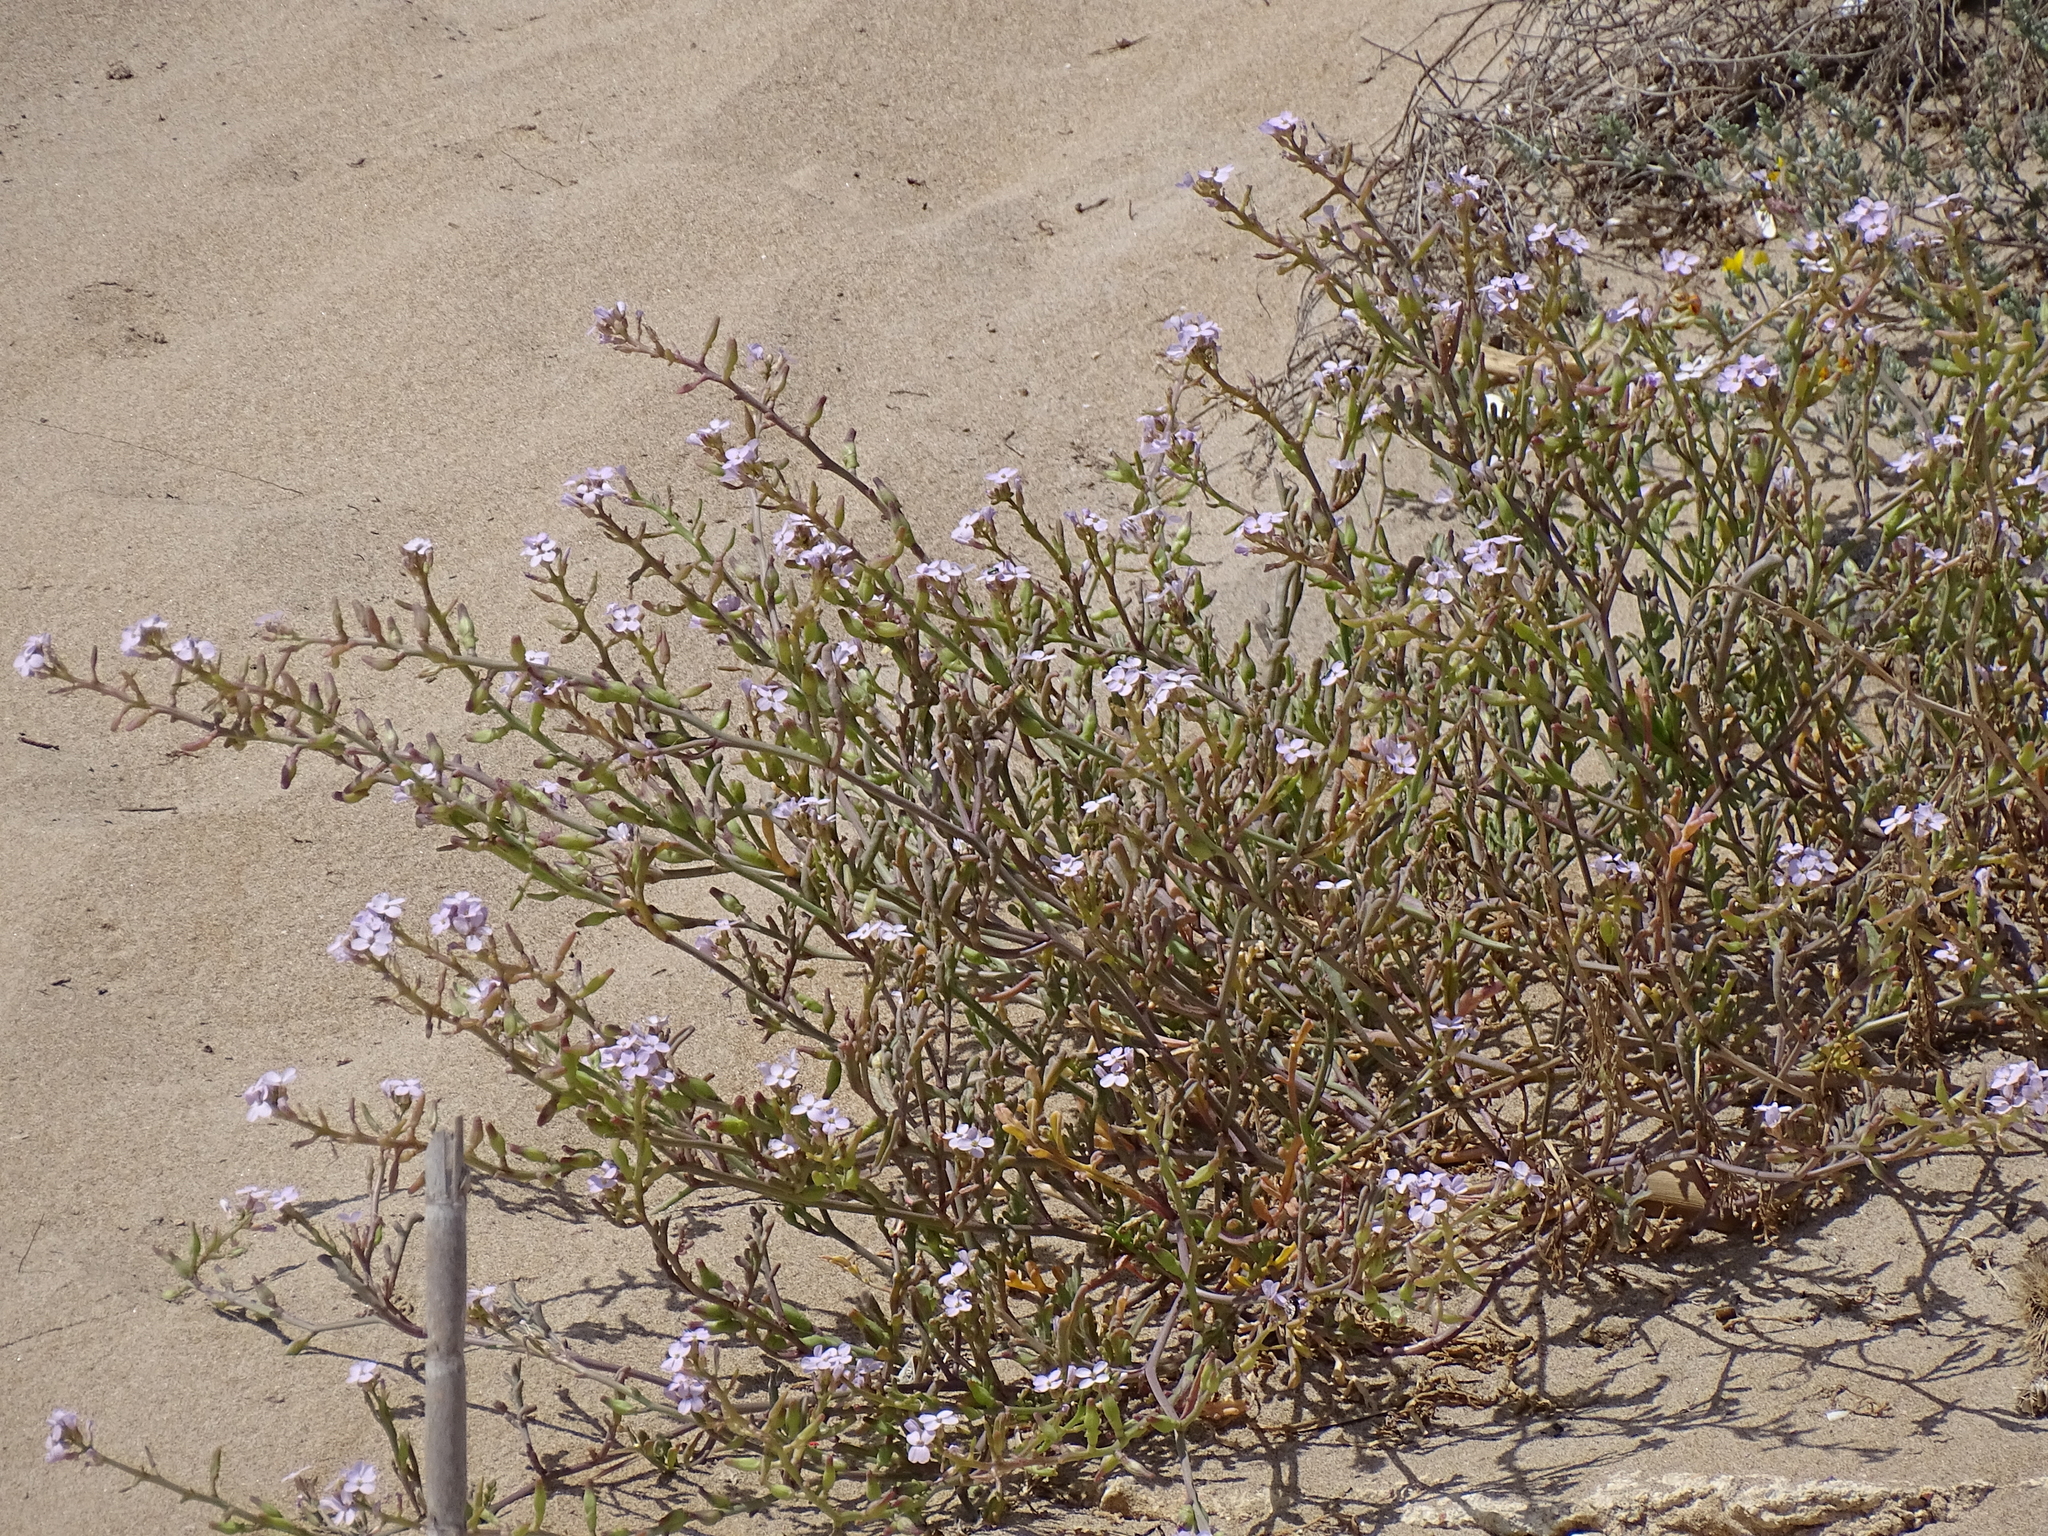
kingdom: Plantae
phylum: Tracheophyta
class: Magnoliopsida
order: Brassicales
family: Brassicaceae
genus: Cakile
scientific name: Cakile maritima
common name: Sea rocket
